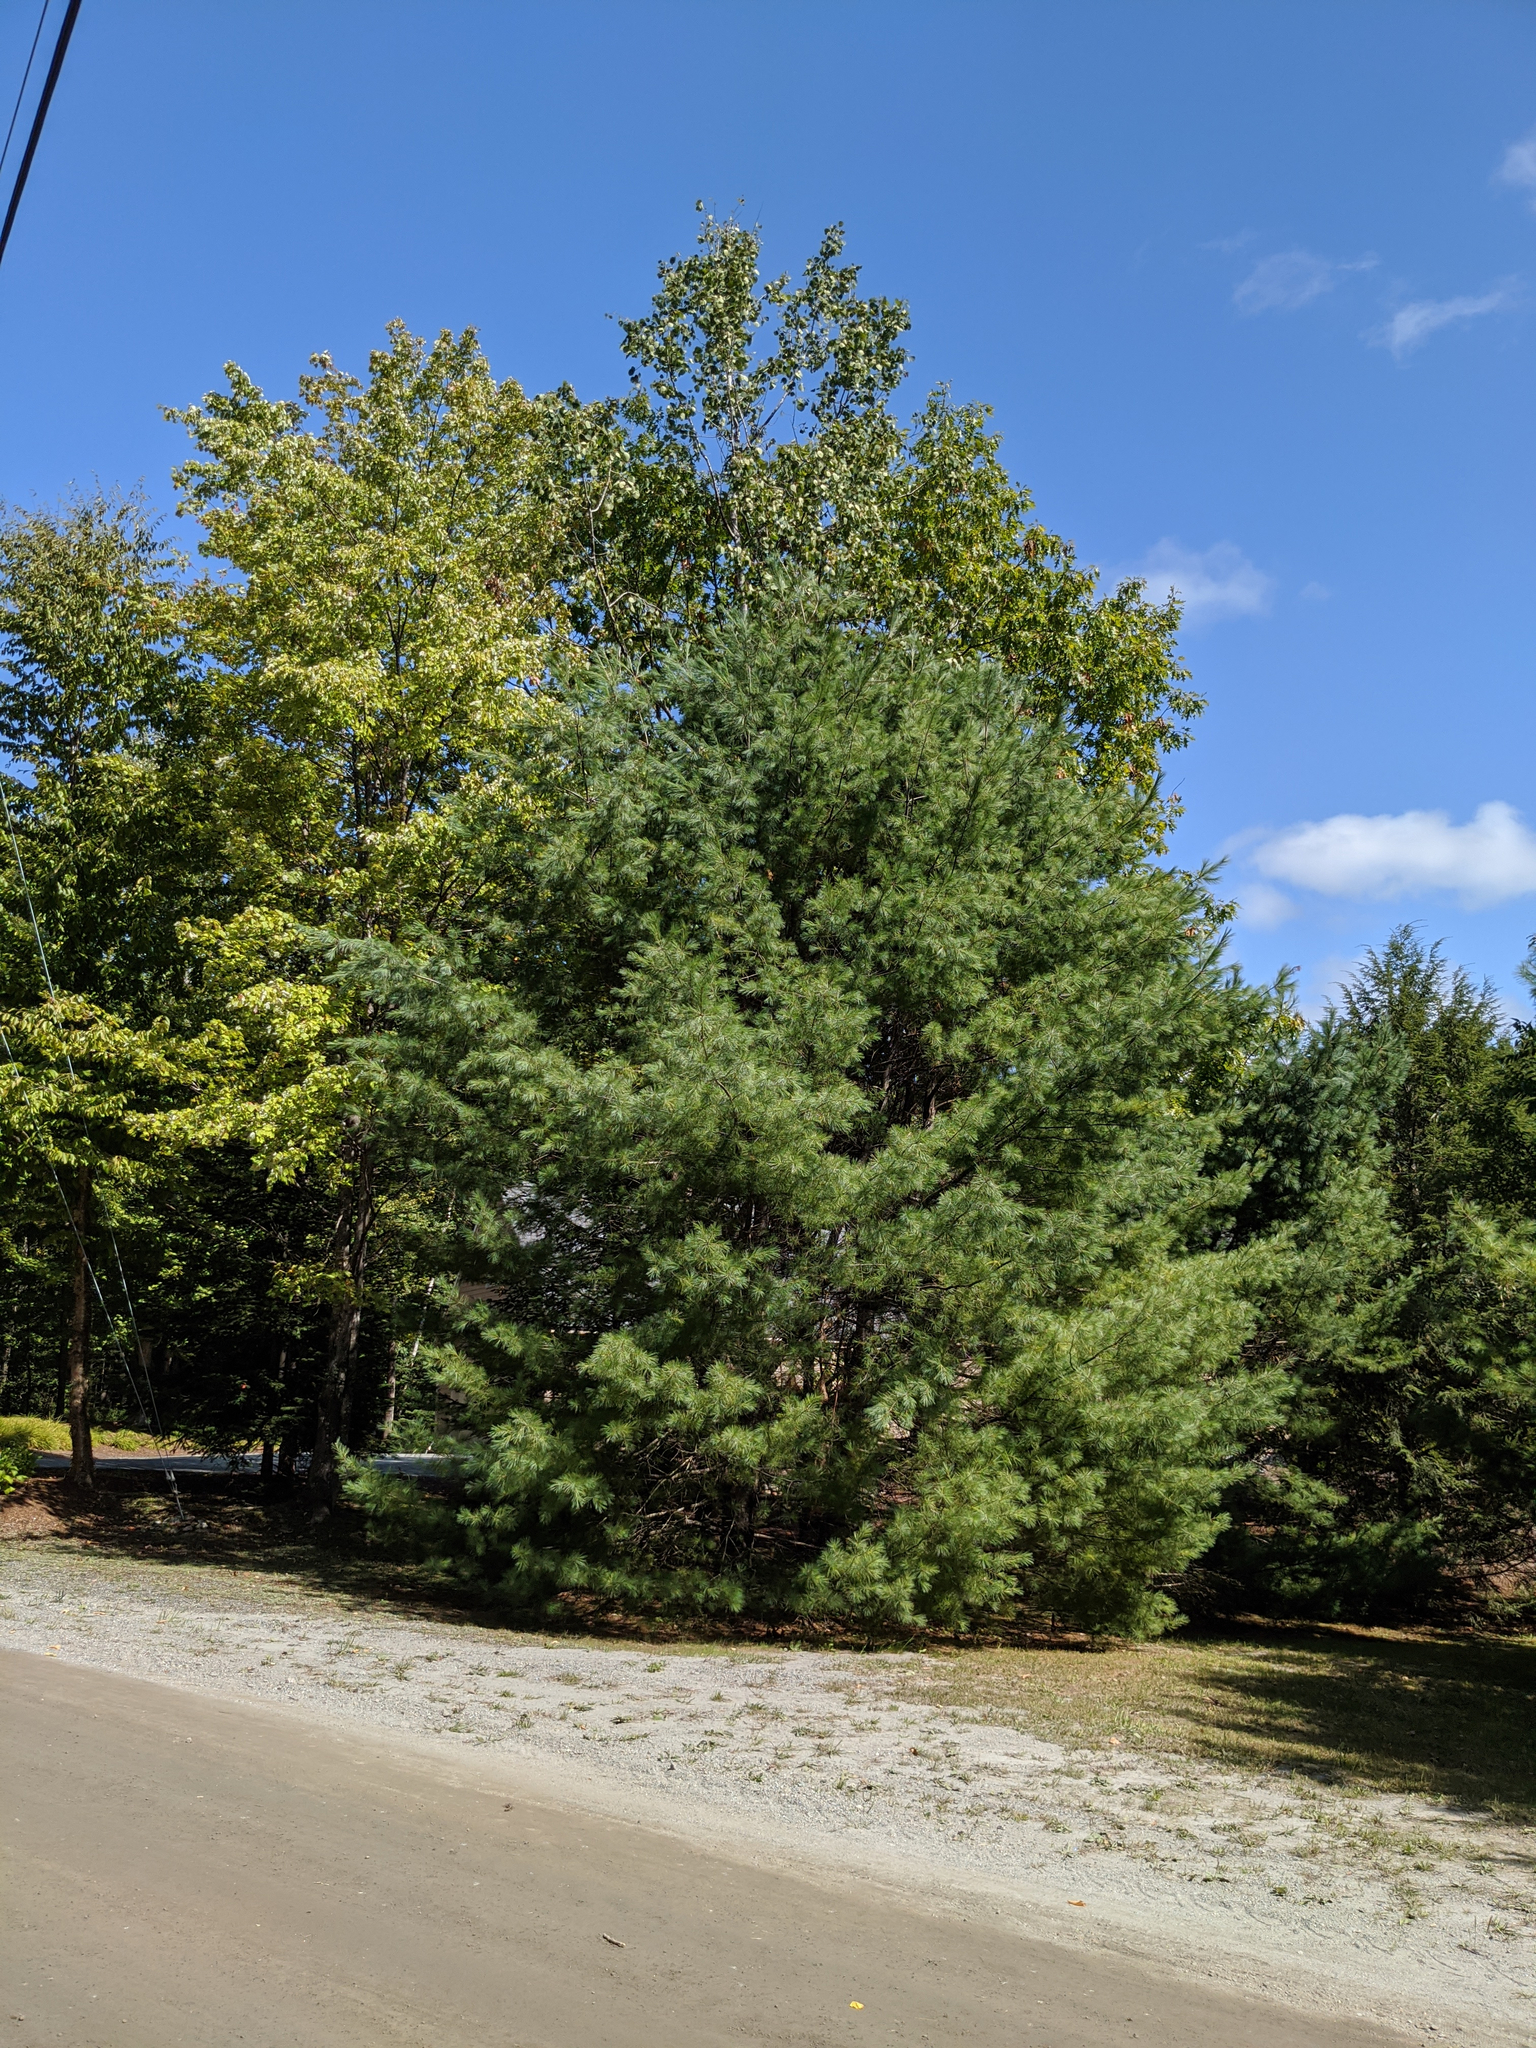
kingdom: Plantae
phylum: Tracheophyta
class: Pinopsida
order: Pinales
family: Pinaceae
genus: Pinus
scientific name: Pinus strobus
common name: Weymouth pine
